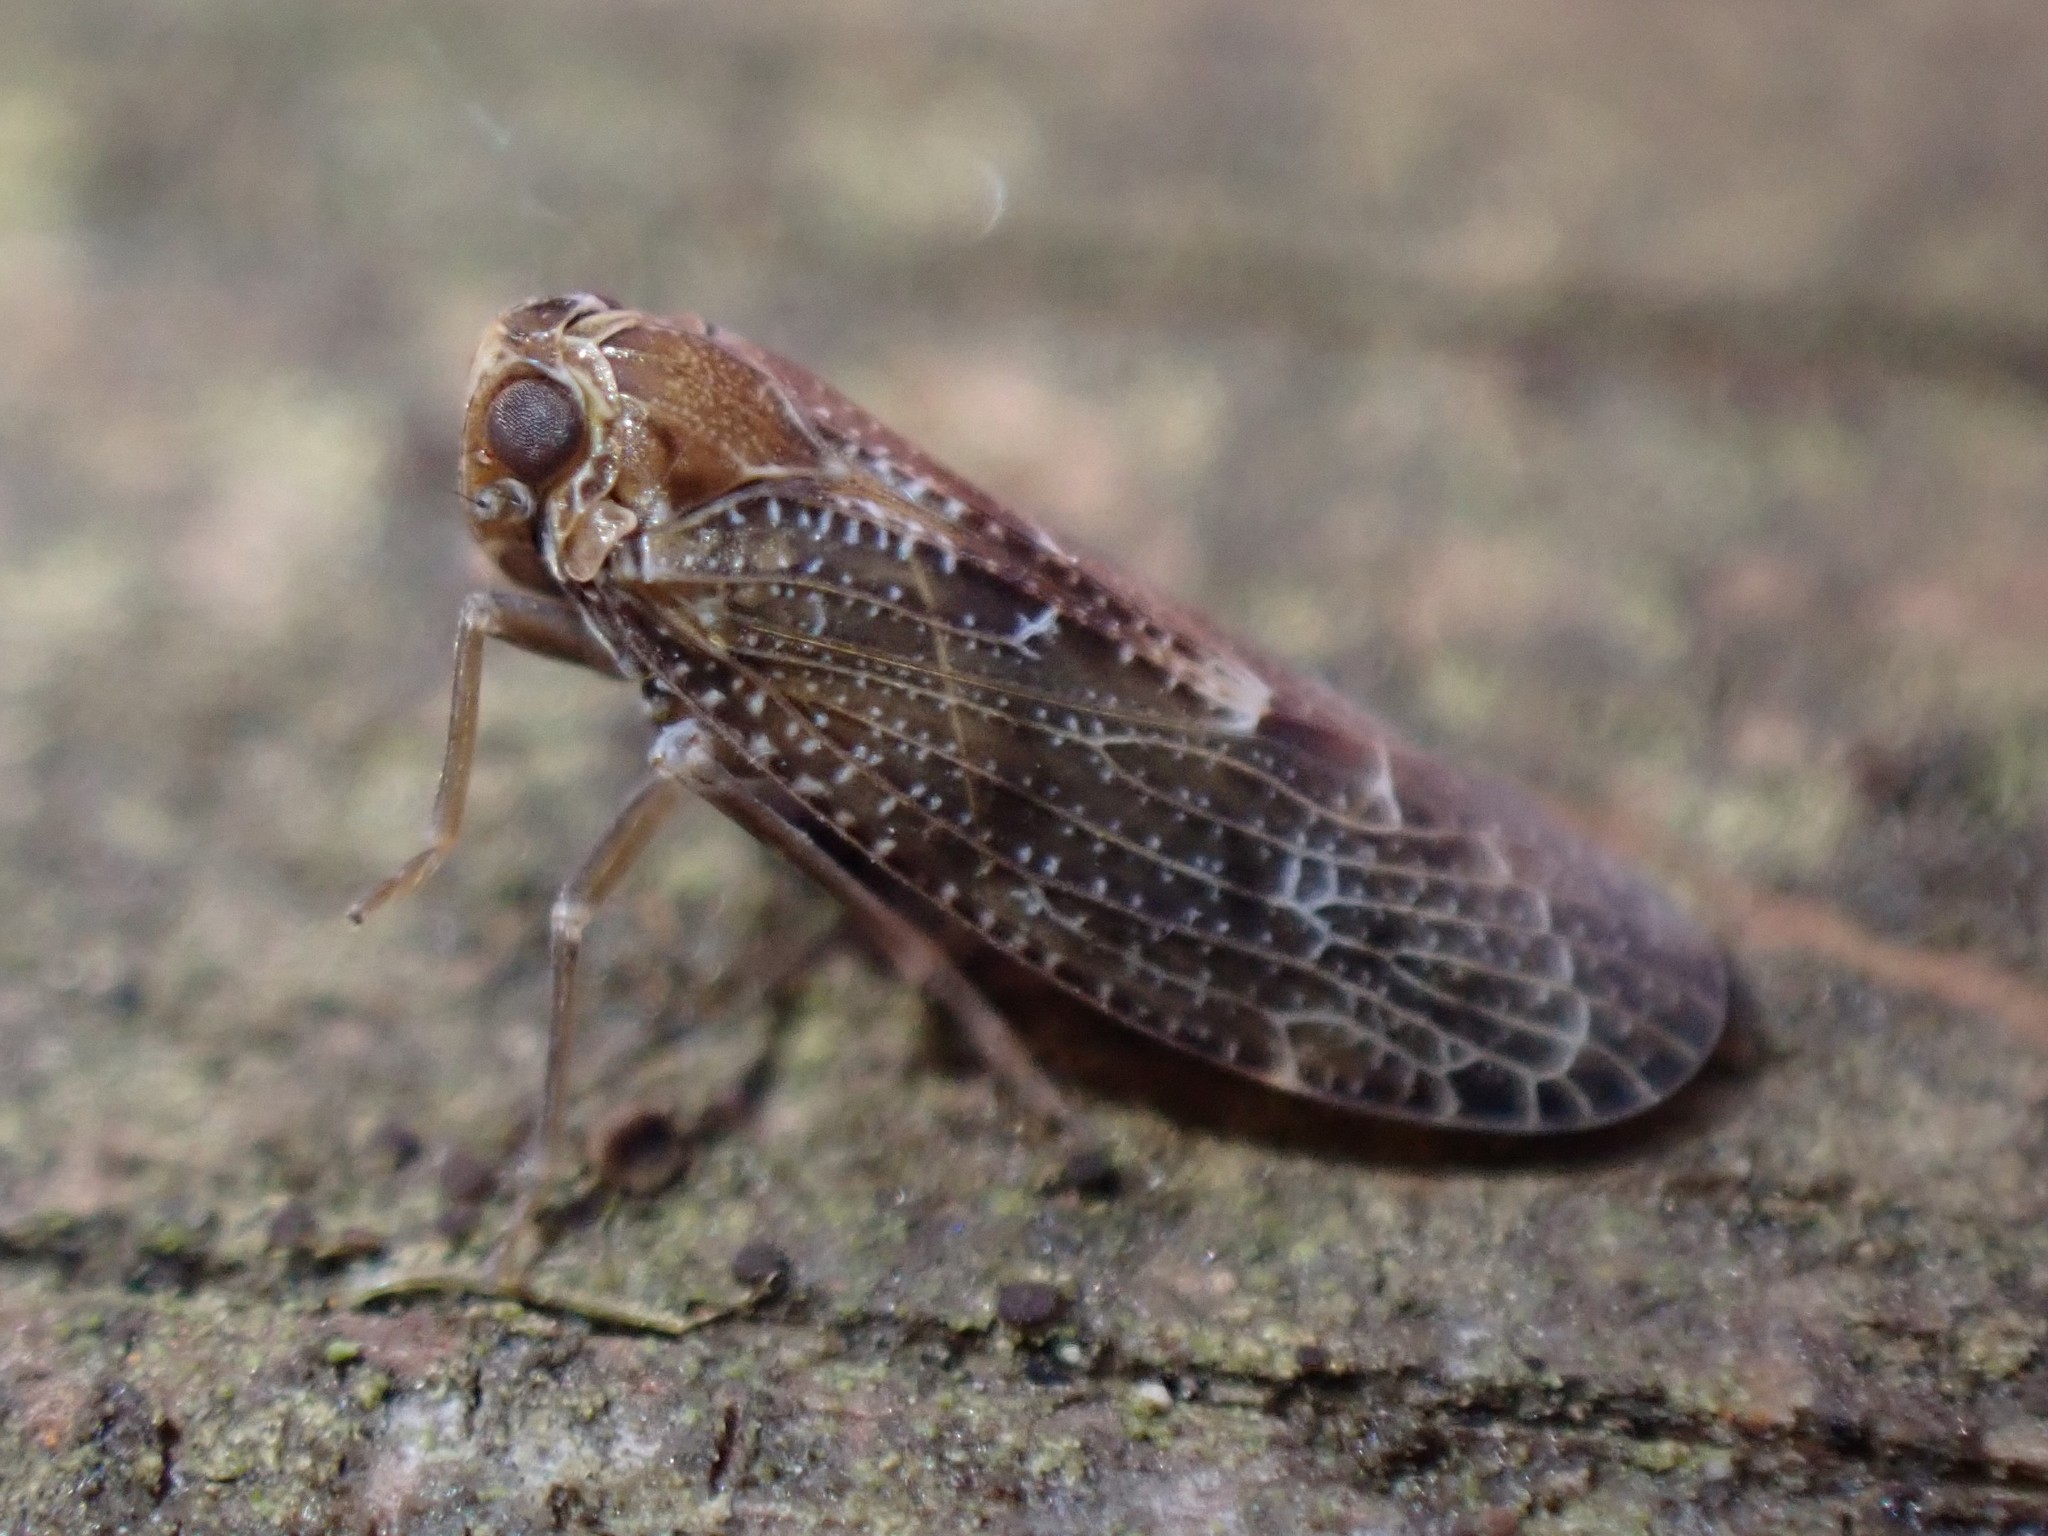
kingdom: Animalia
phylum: Arthropoda
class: Insecta
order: Hemiptera
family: Achilidae
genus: Synecdoche
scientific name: Synecdoche nemoralis
